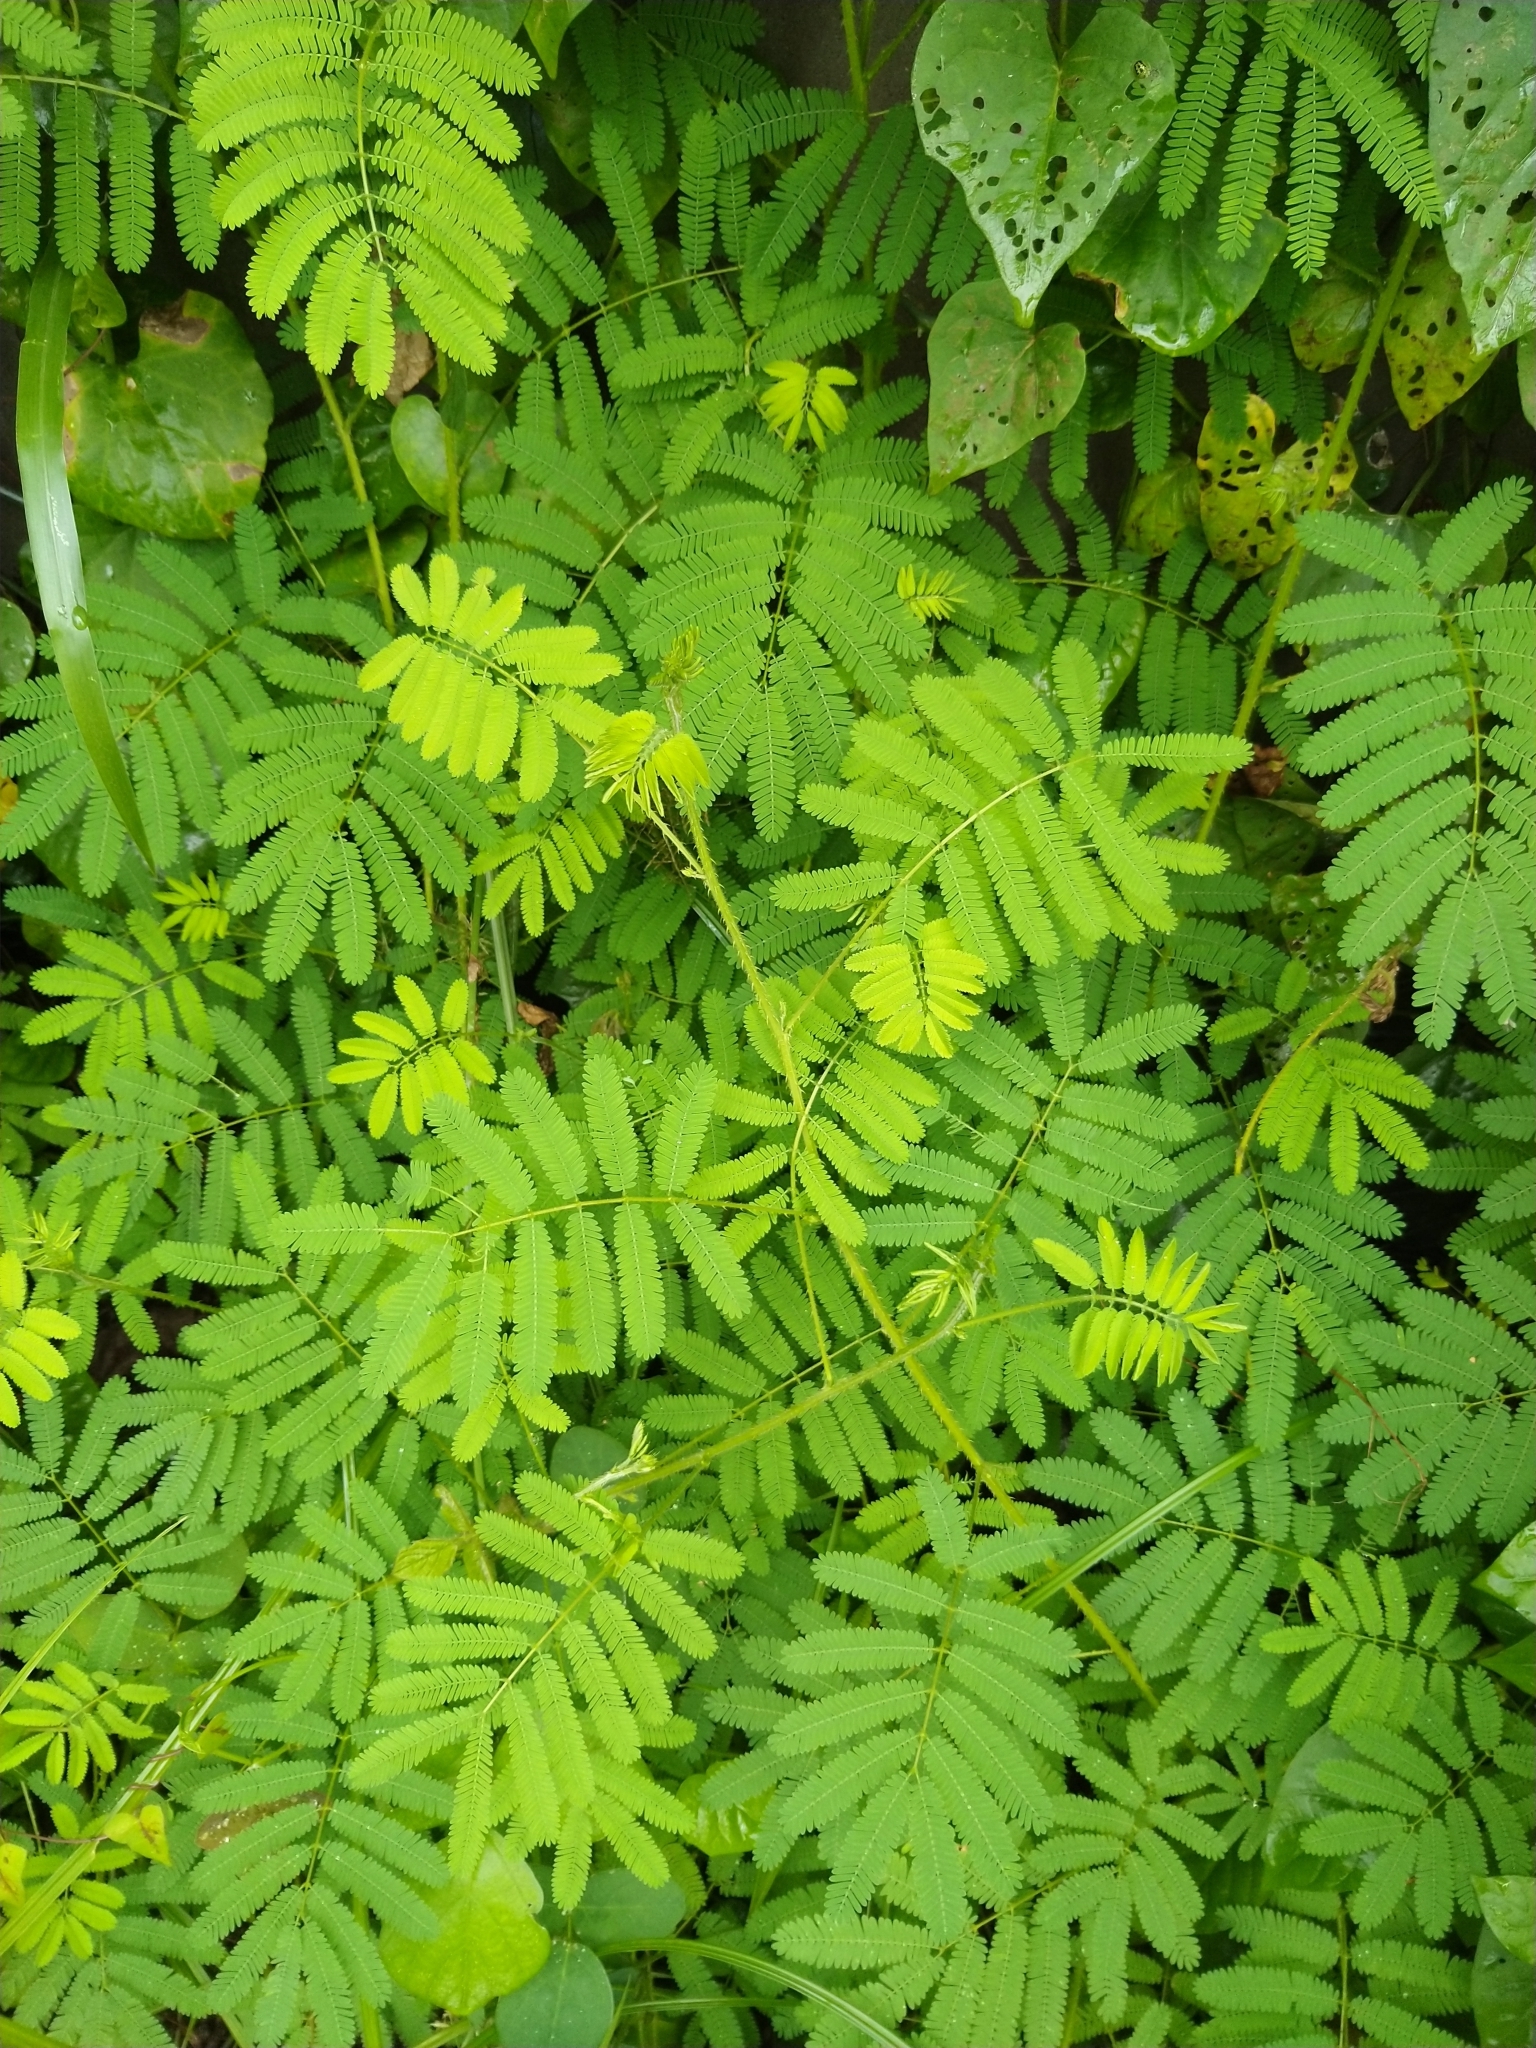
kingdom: Plantae
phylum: Tracheophyta
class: Magnoliopsida
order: Fabales
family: Fabaceae
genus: Mimosa
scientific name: Mimosa diplotricha
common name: Giant sensitive-plant
